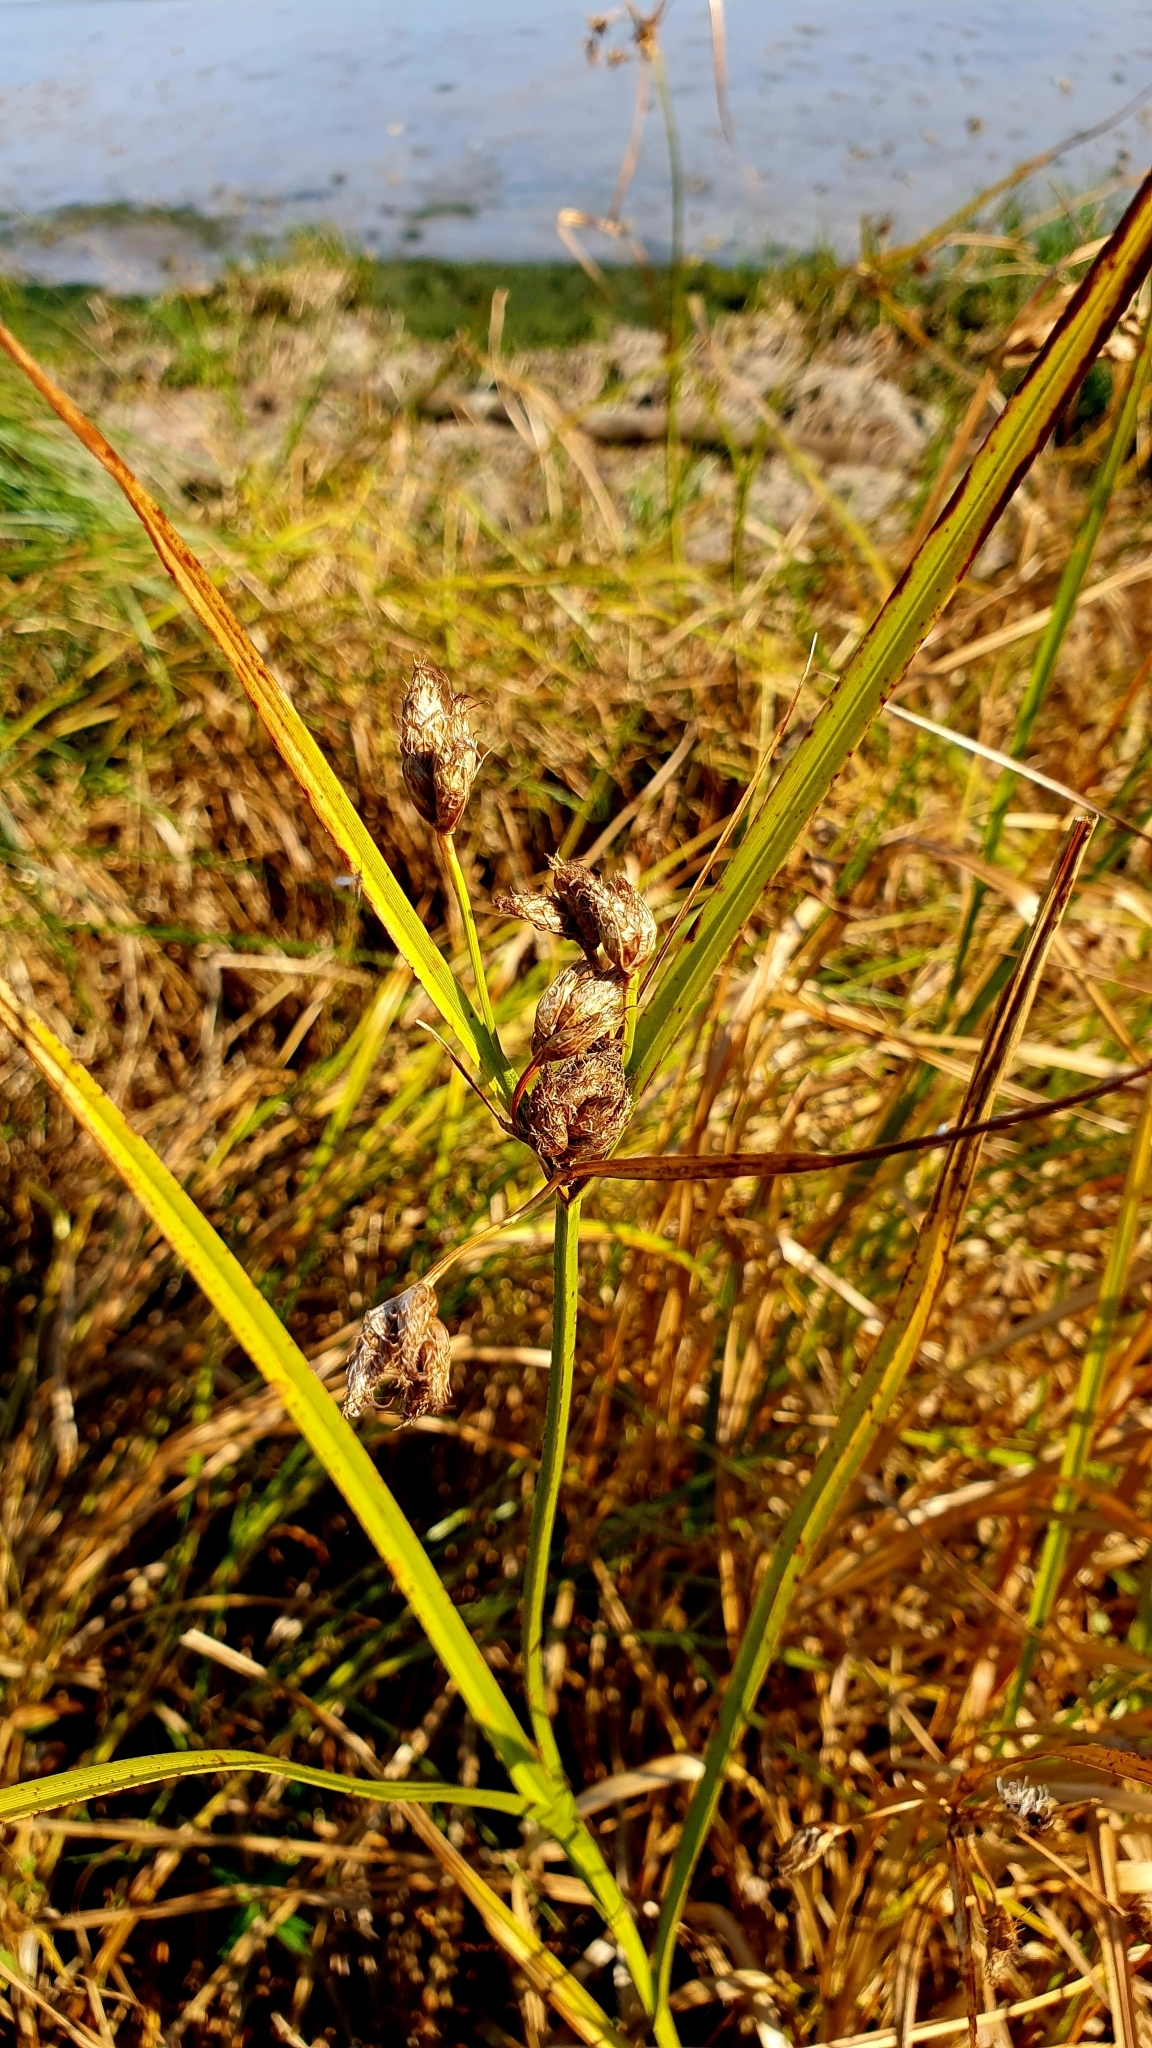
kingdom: Plantae
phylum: Tracheophyta
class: Liliopsida
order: Poales
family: Cyperaceae
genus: Bolboschoenus
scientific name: Bolboschoenus maritimus
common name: Sea club-rush
